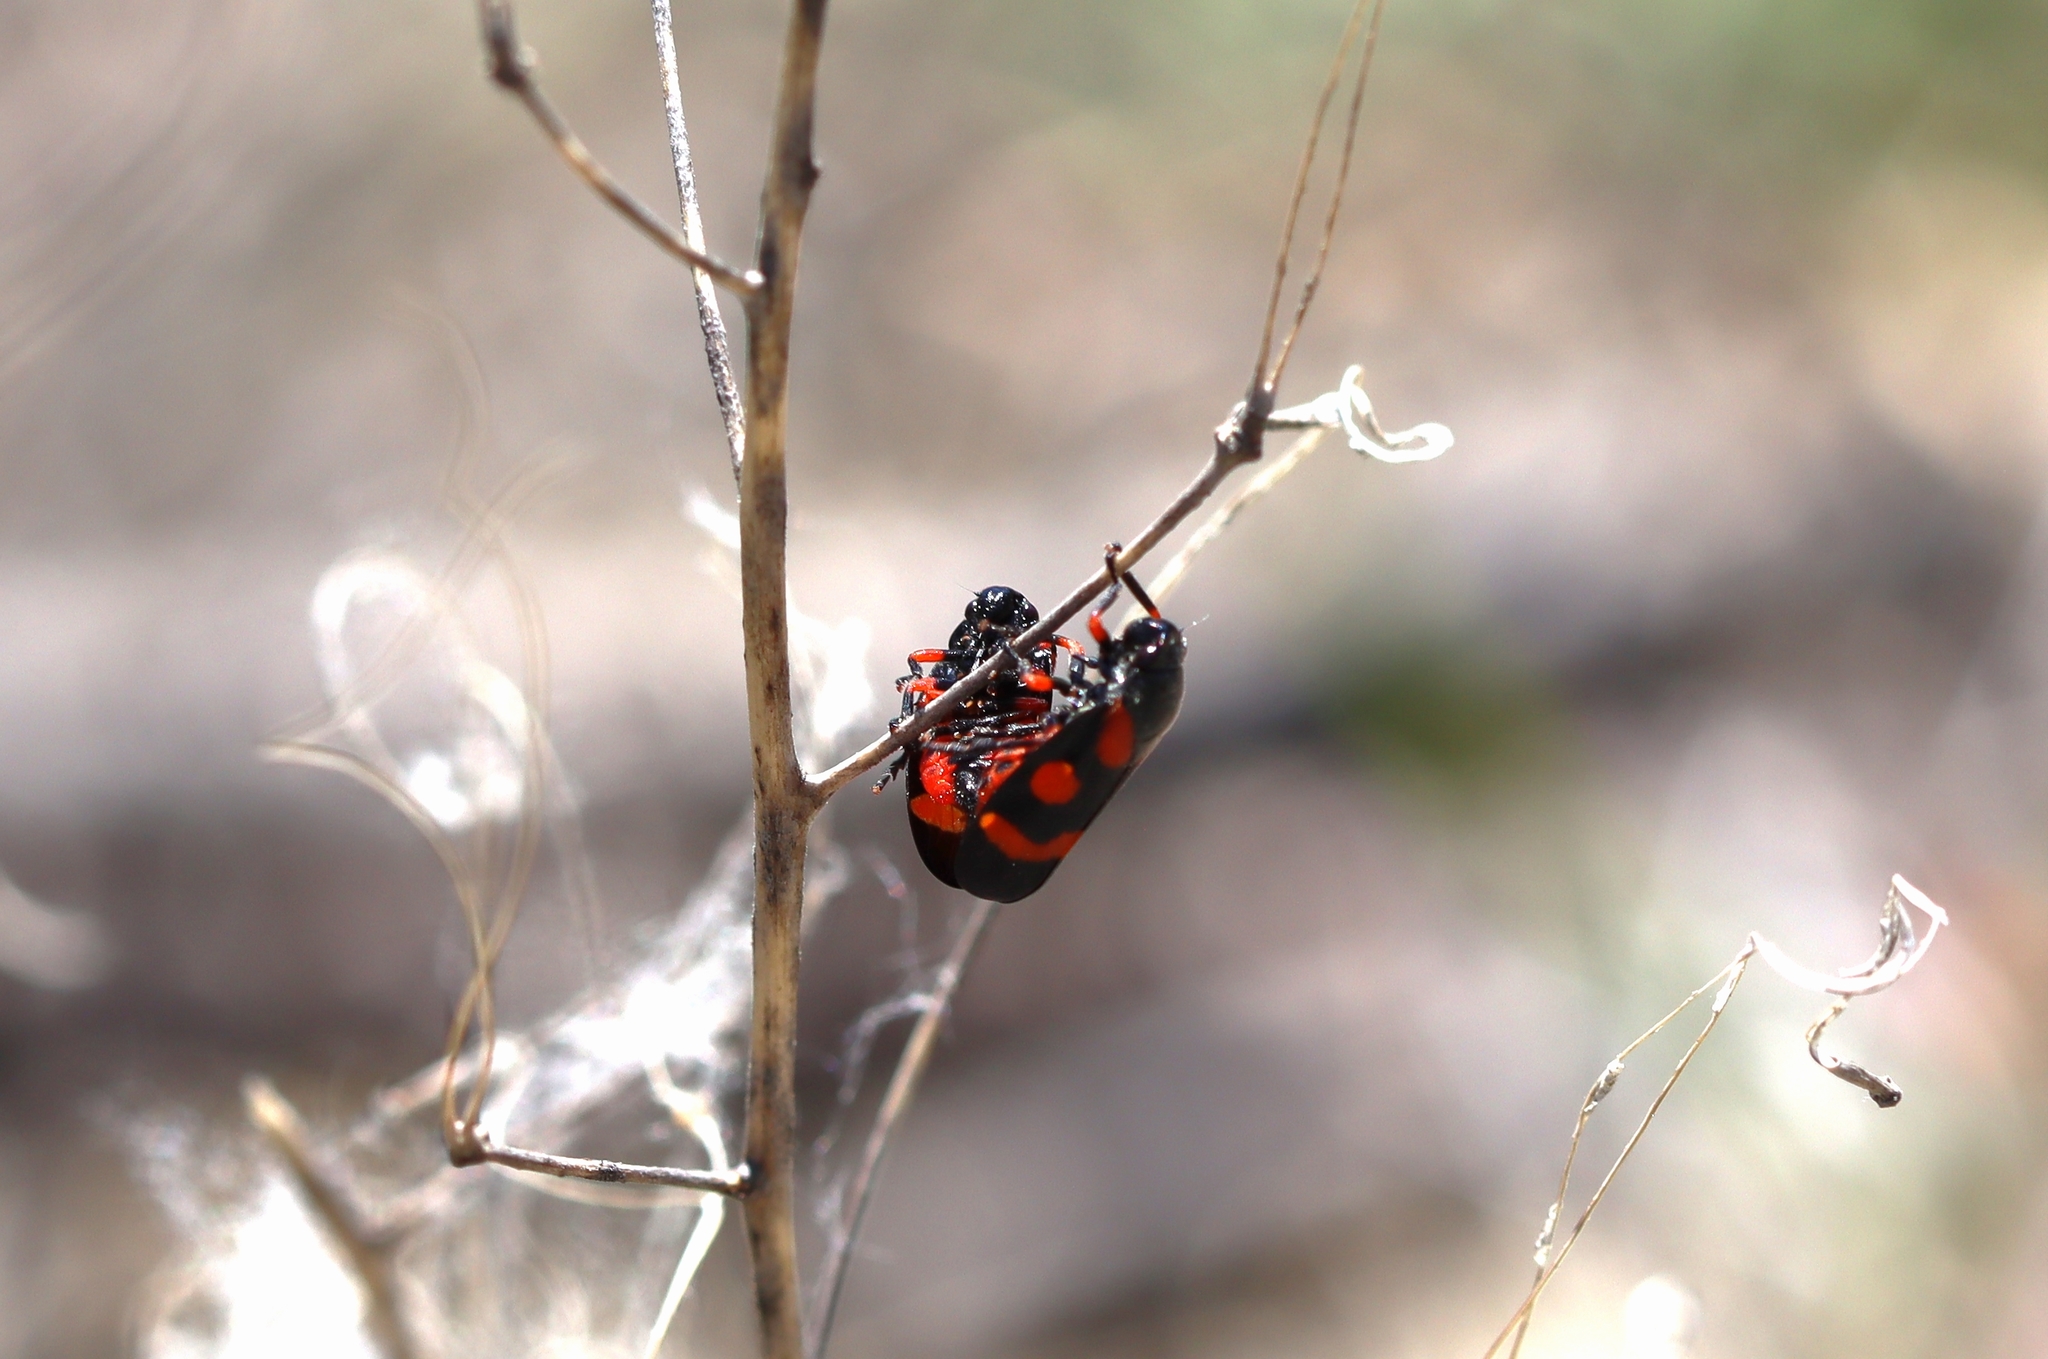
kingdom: Animalia
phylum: Arthropoda
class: Insecta
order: Hemiptera
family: Cercopidae
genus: Cercopis
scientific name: Cercopis intermedia
